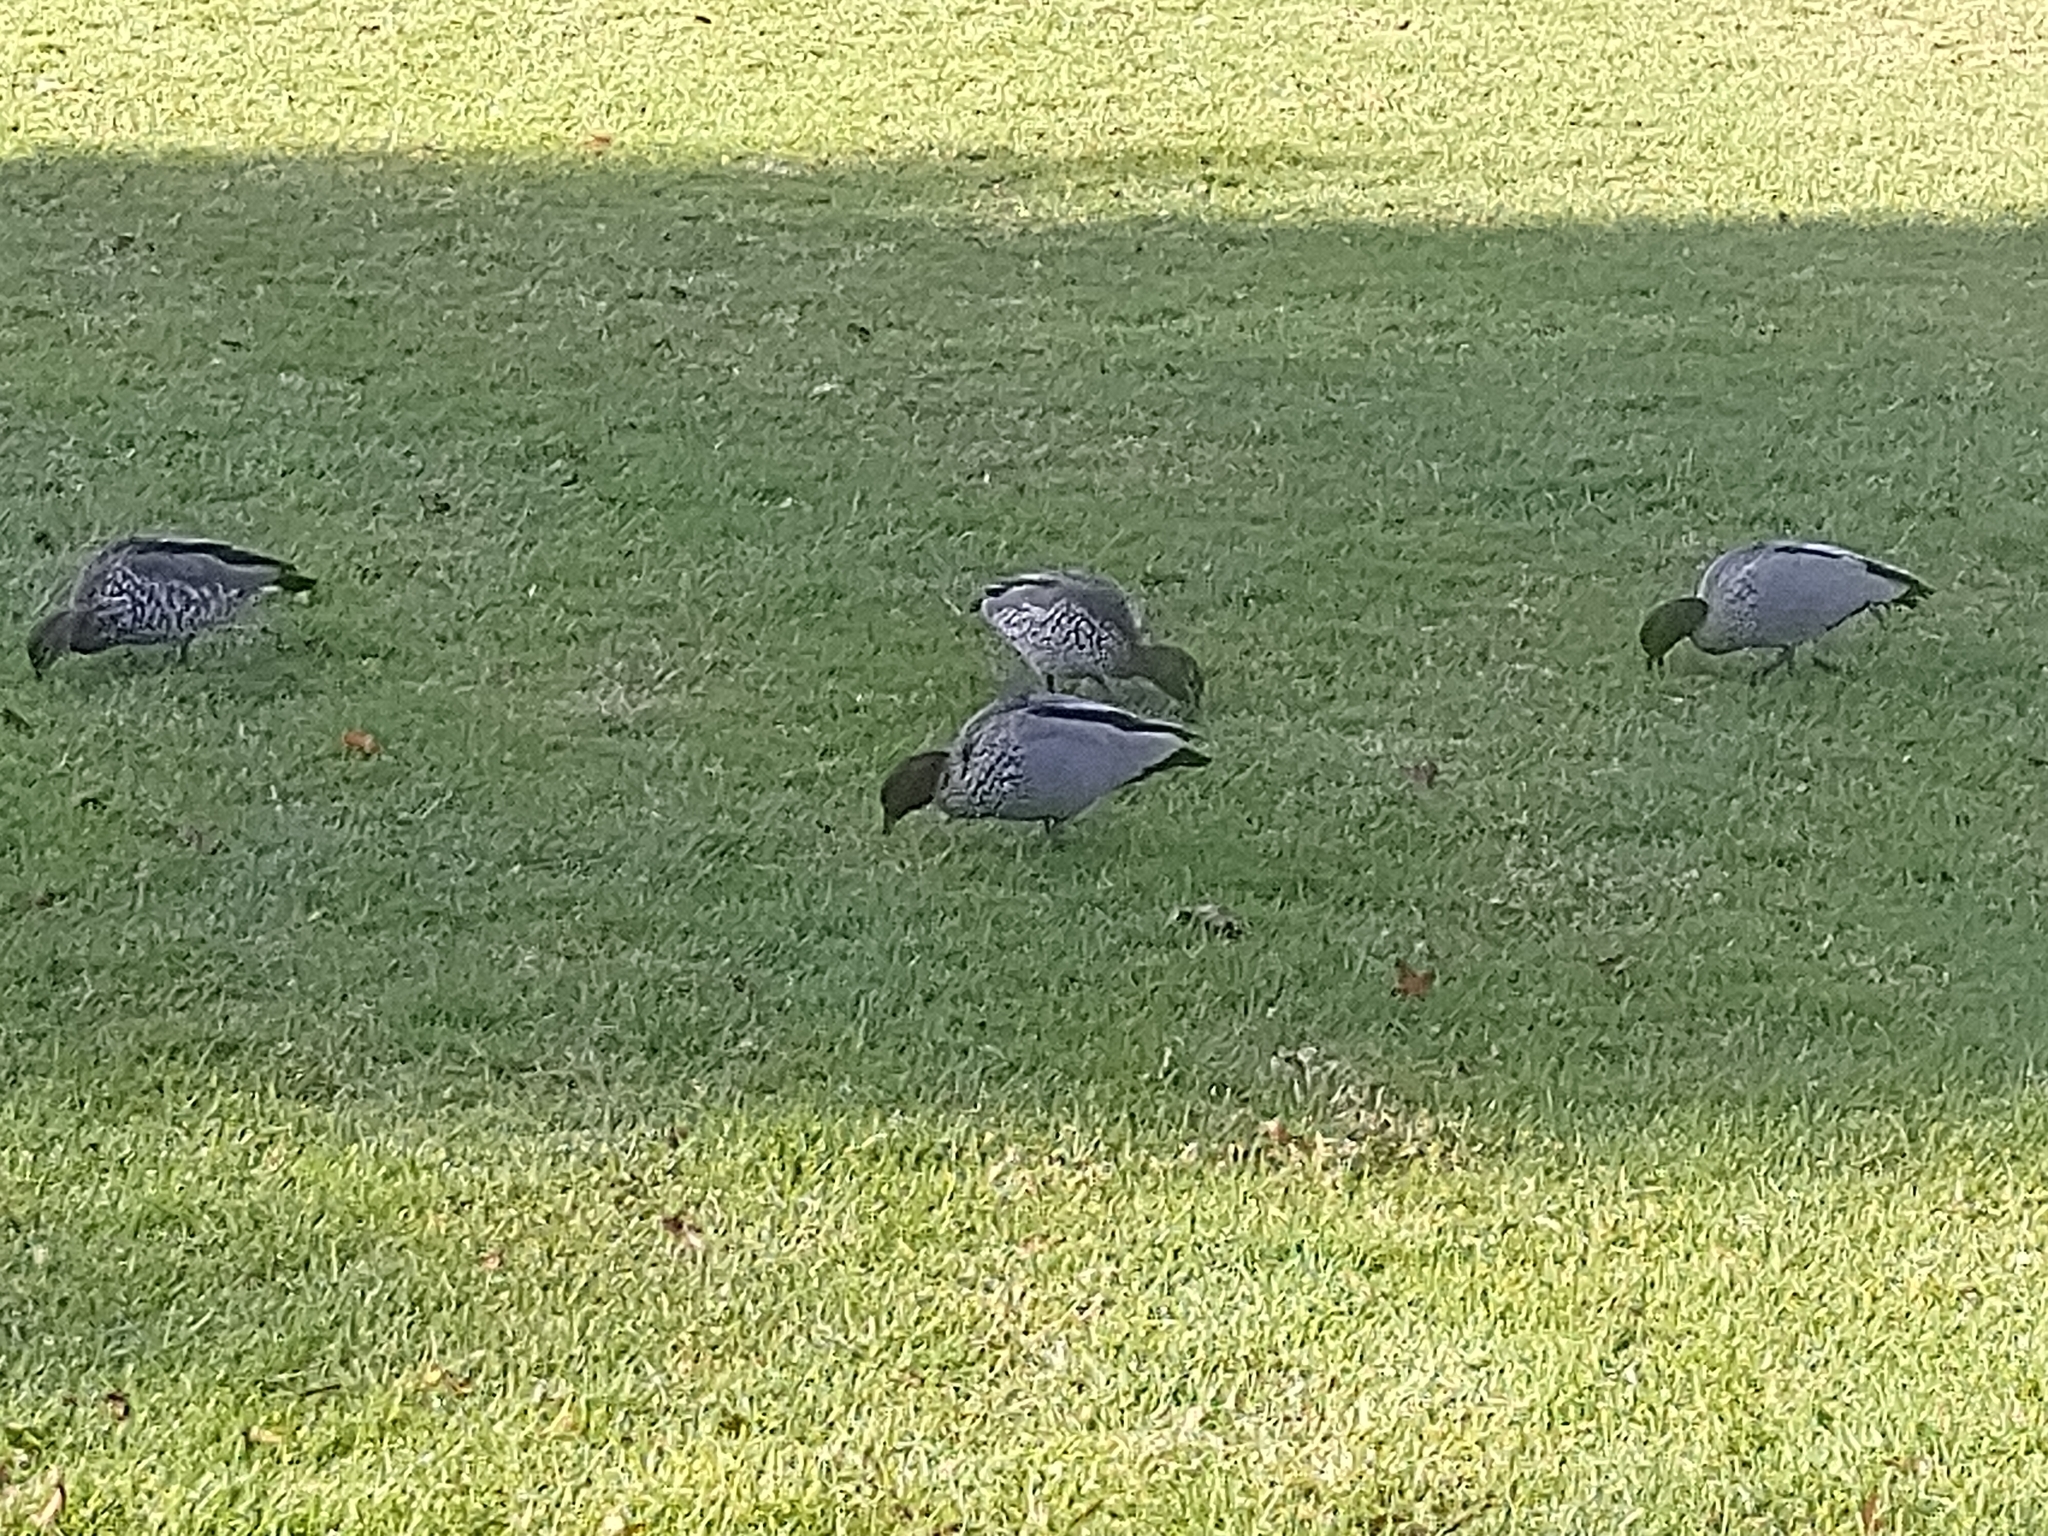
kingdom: Animalia
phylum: Chordata
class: Aves
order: Anseriformes
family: Anatidae
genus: Chenonetta
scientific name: Chenonetta jubata
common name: Maned duck
